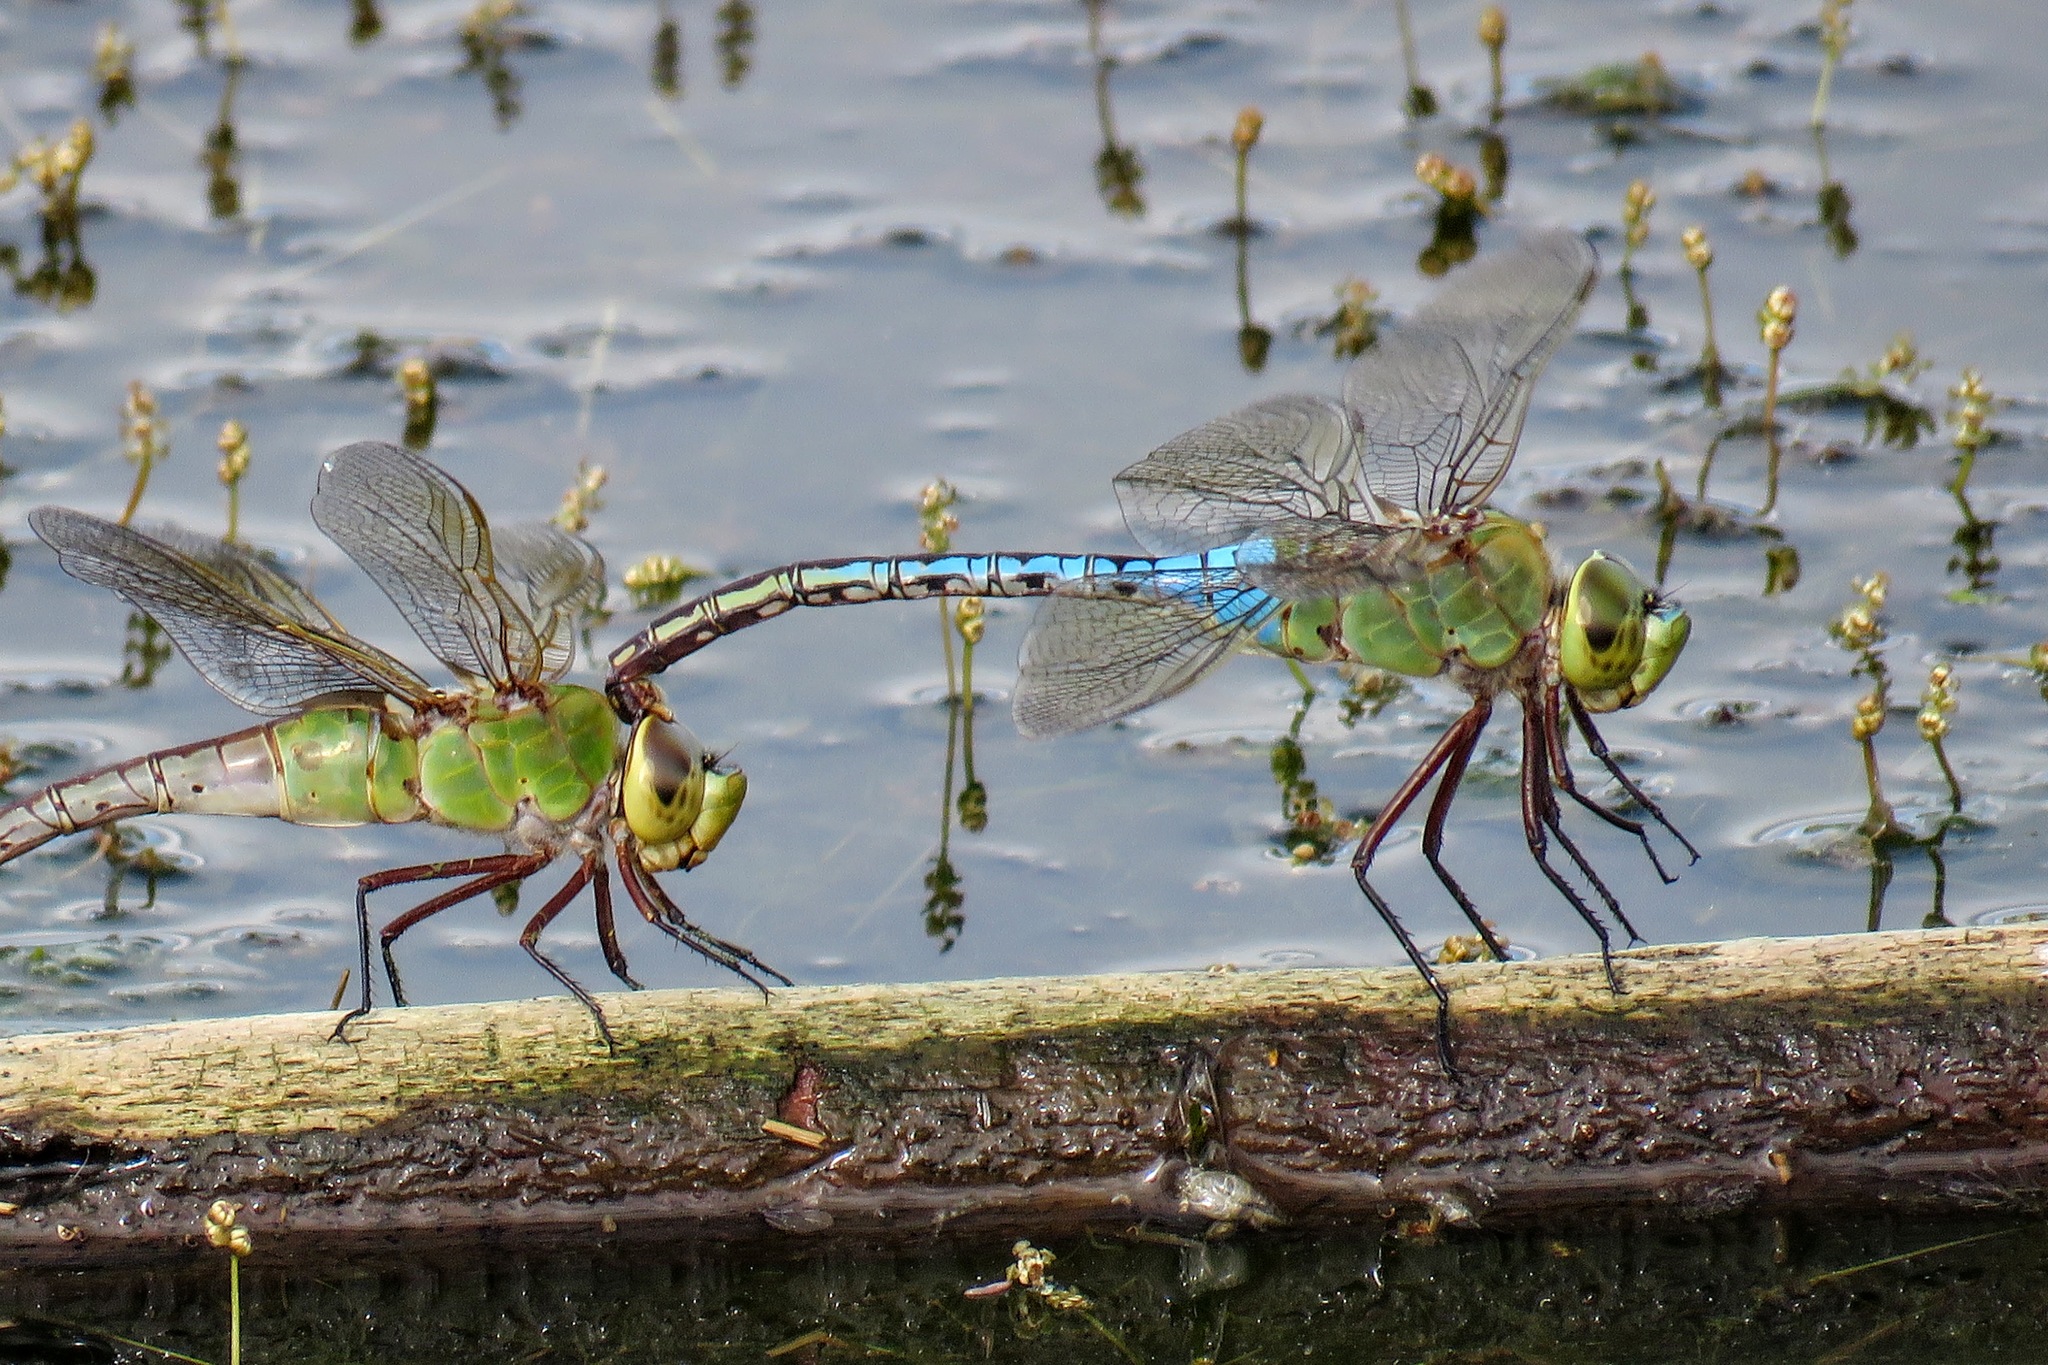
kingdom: Animalia
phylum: Arthropoda
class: Insecta
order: Odonata
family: Aeshnidae
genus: Anax
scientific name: Anax junius
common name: Common green darner
